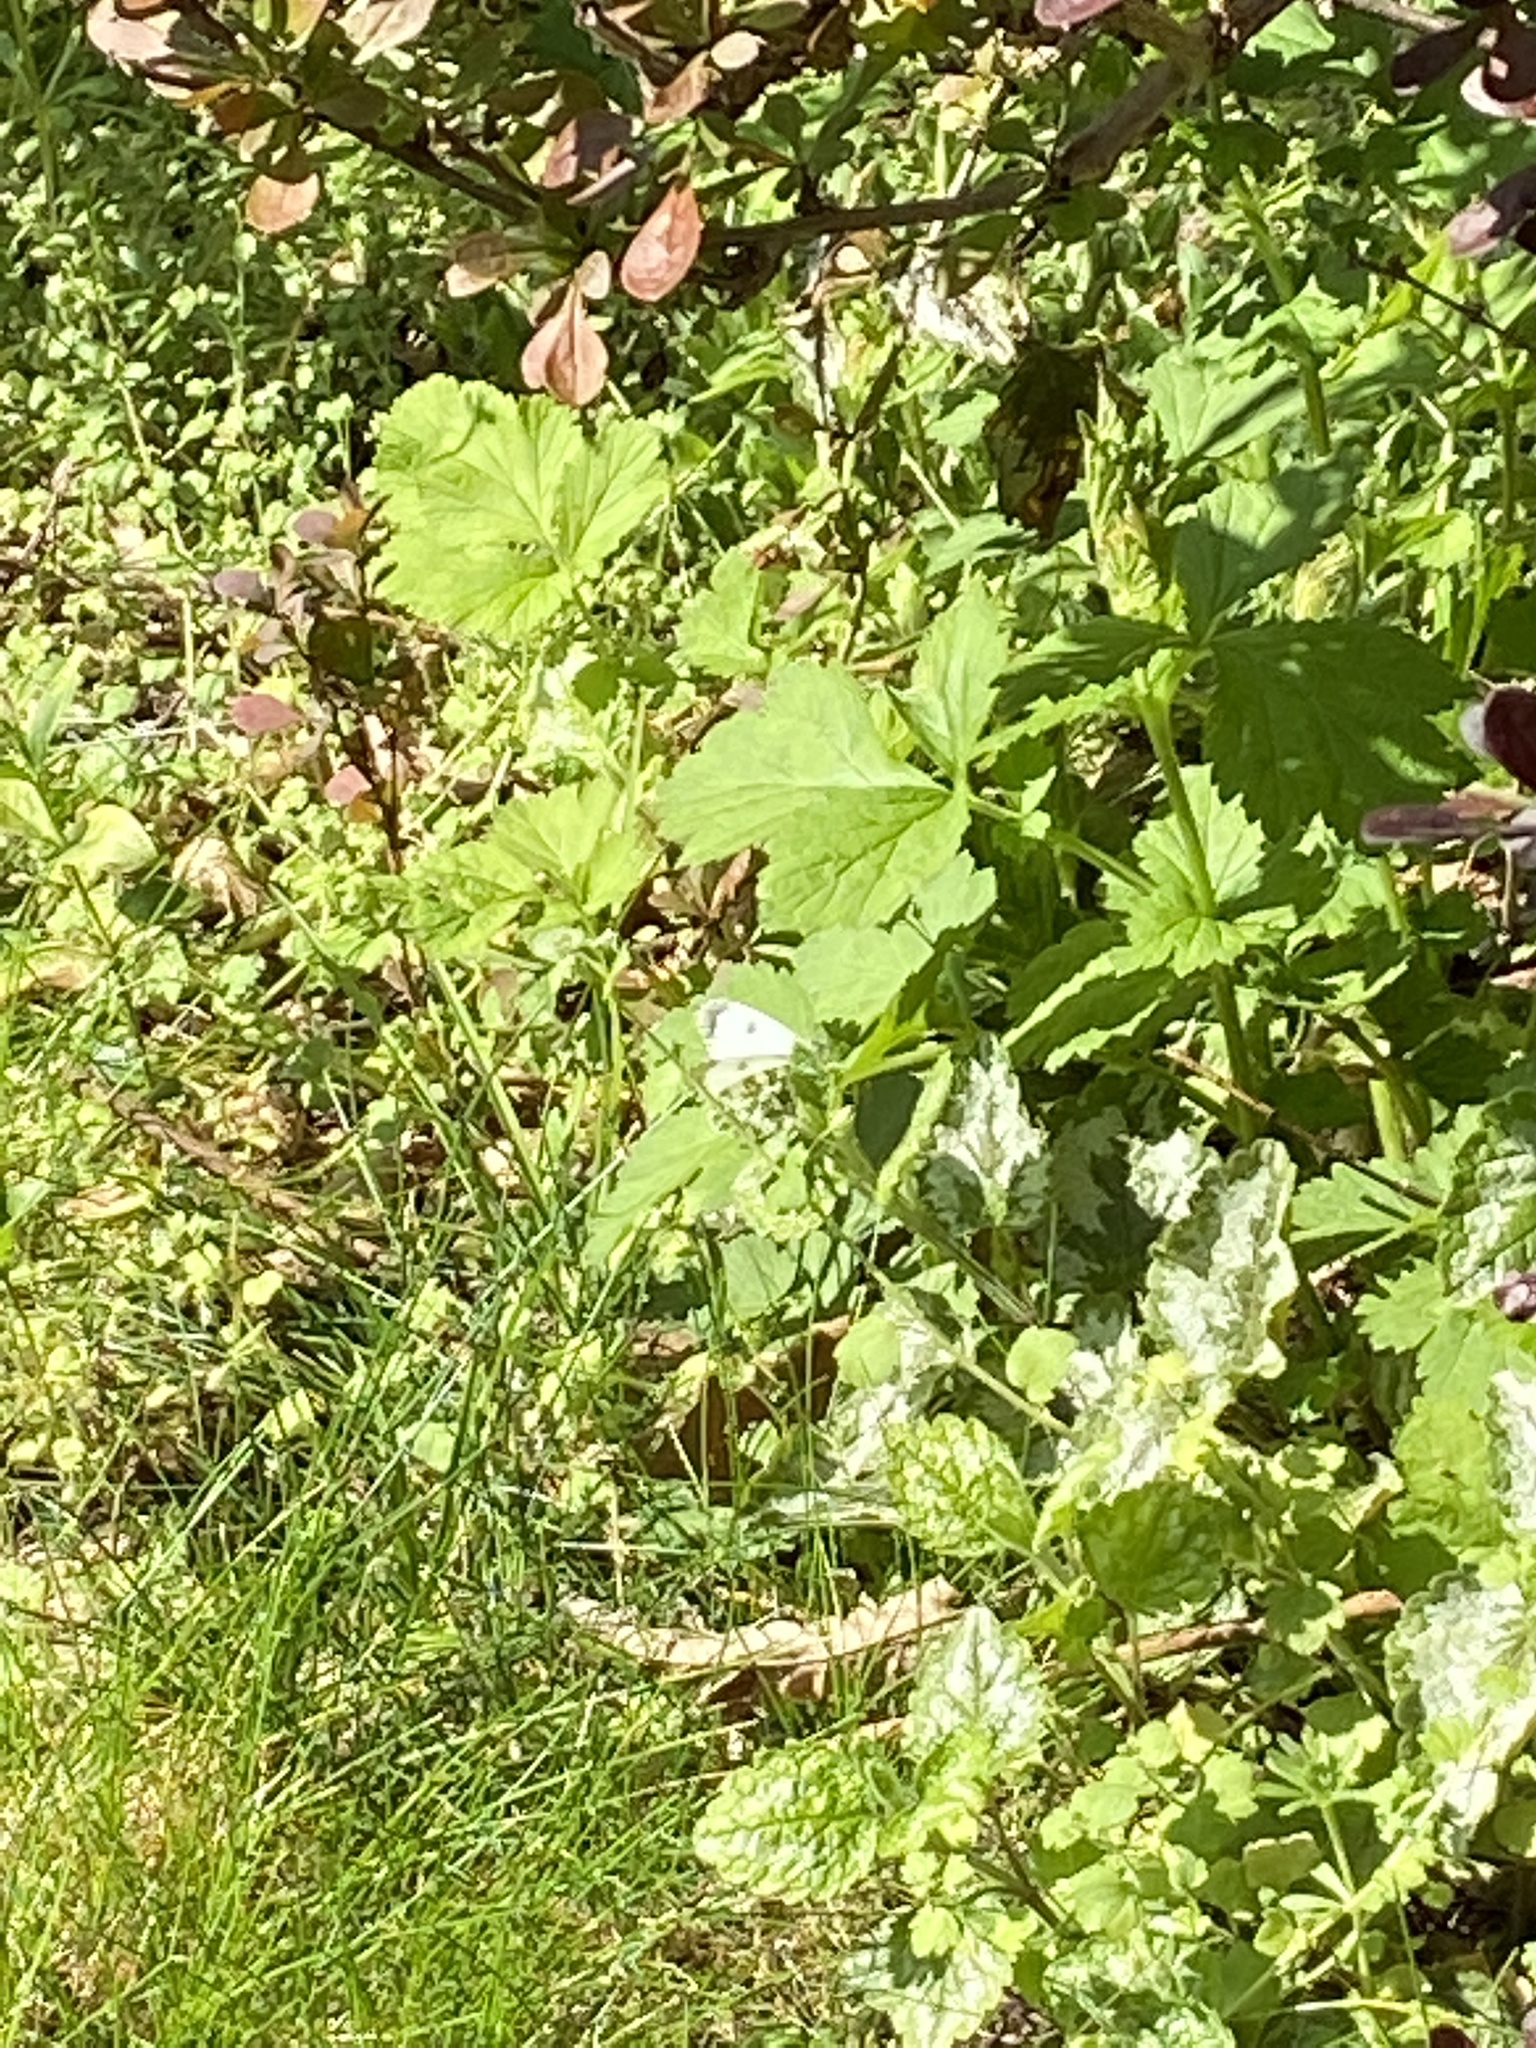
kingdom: Animalia
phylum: Arthropoda
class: Insecta
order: Lepidoptera
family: Pieridae
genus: Anthocharis
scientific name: Anthocharis cardamines
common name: Orange-tip
